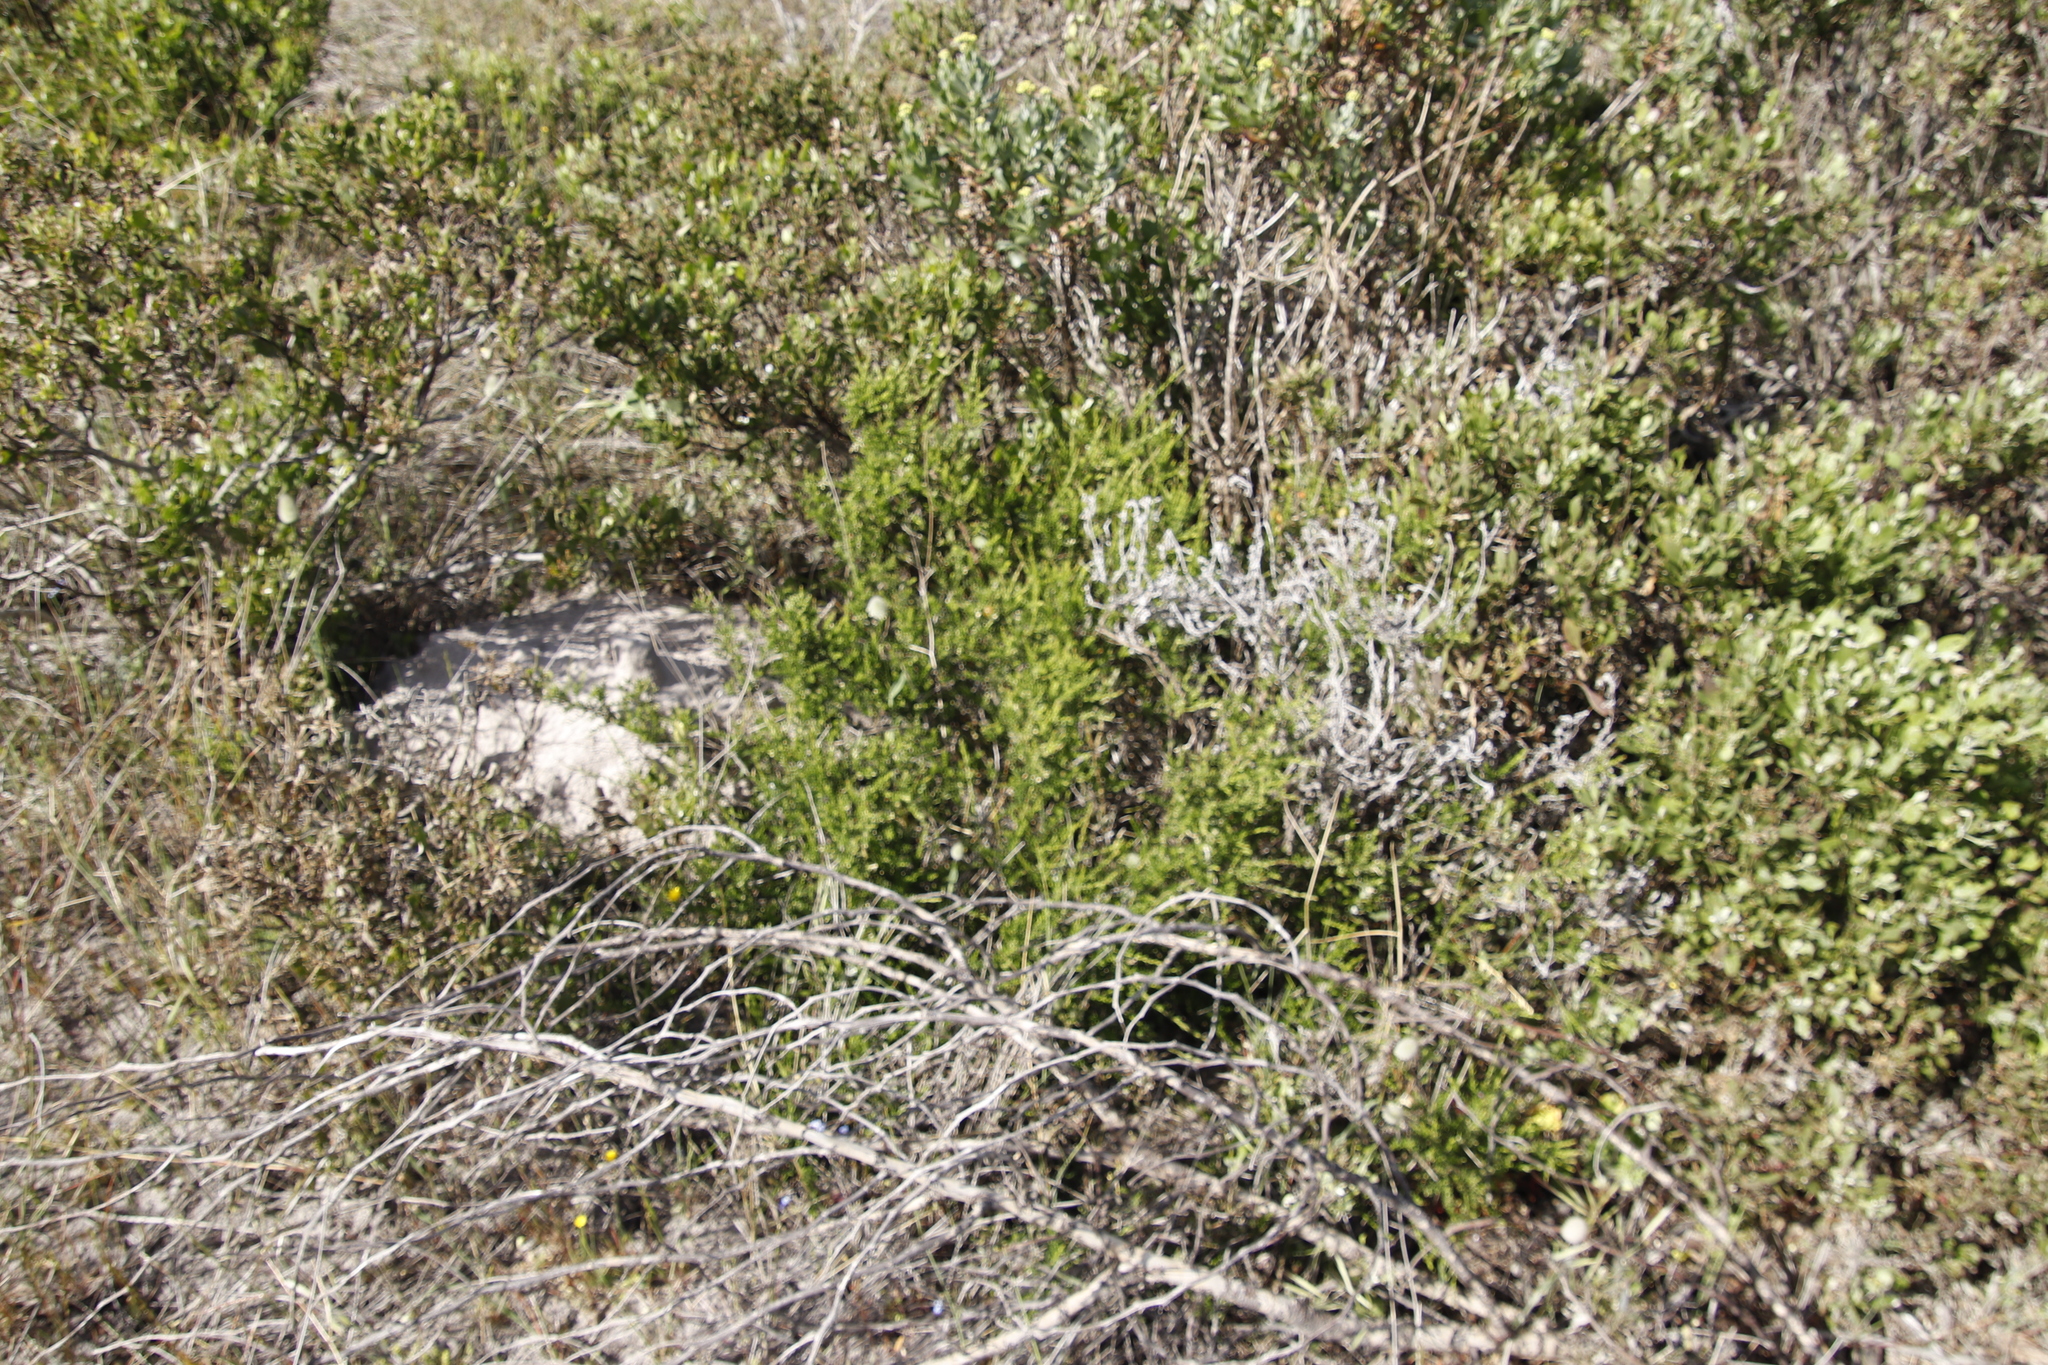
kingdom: Plantae
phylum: Tracheophyta
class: Magnoliopsida
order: Fabales
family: Polygalaceae
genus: Muraltia
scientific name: Muraltia spinosa
